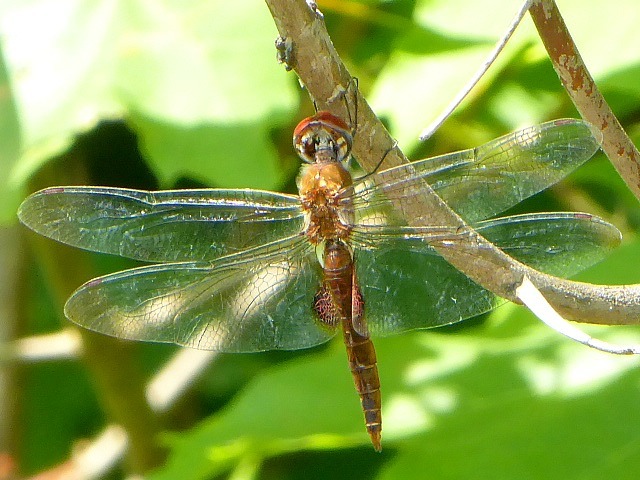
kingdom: Animalia
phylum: Arthropoda
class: Insecta
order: Odonata
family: Libellulidae
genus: Pantala
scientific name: Pantala hymenaea
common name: Spot-winged glider
